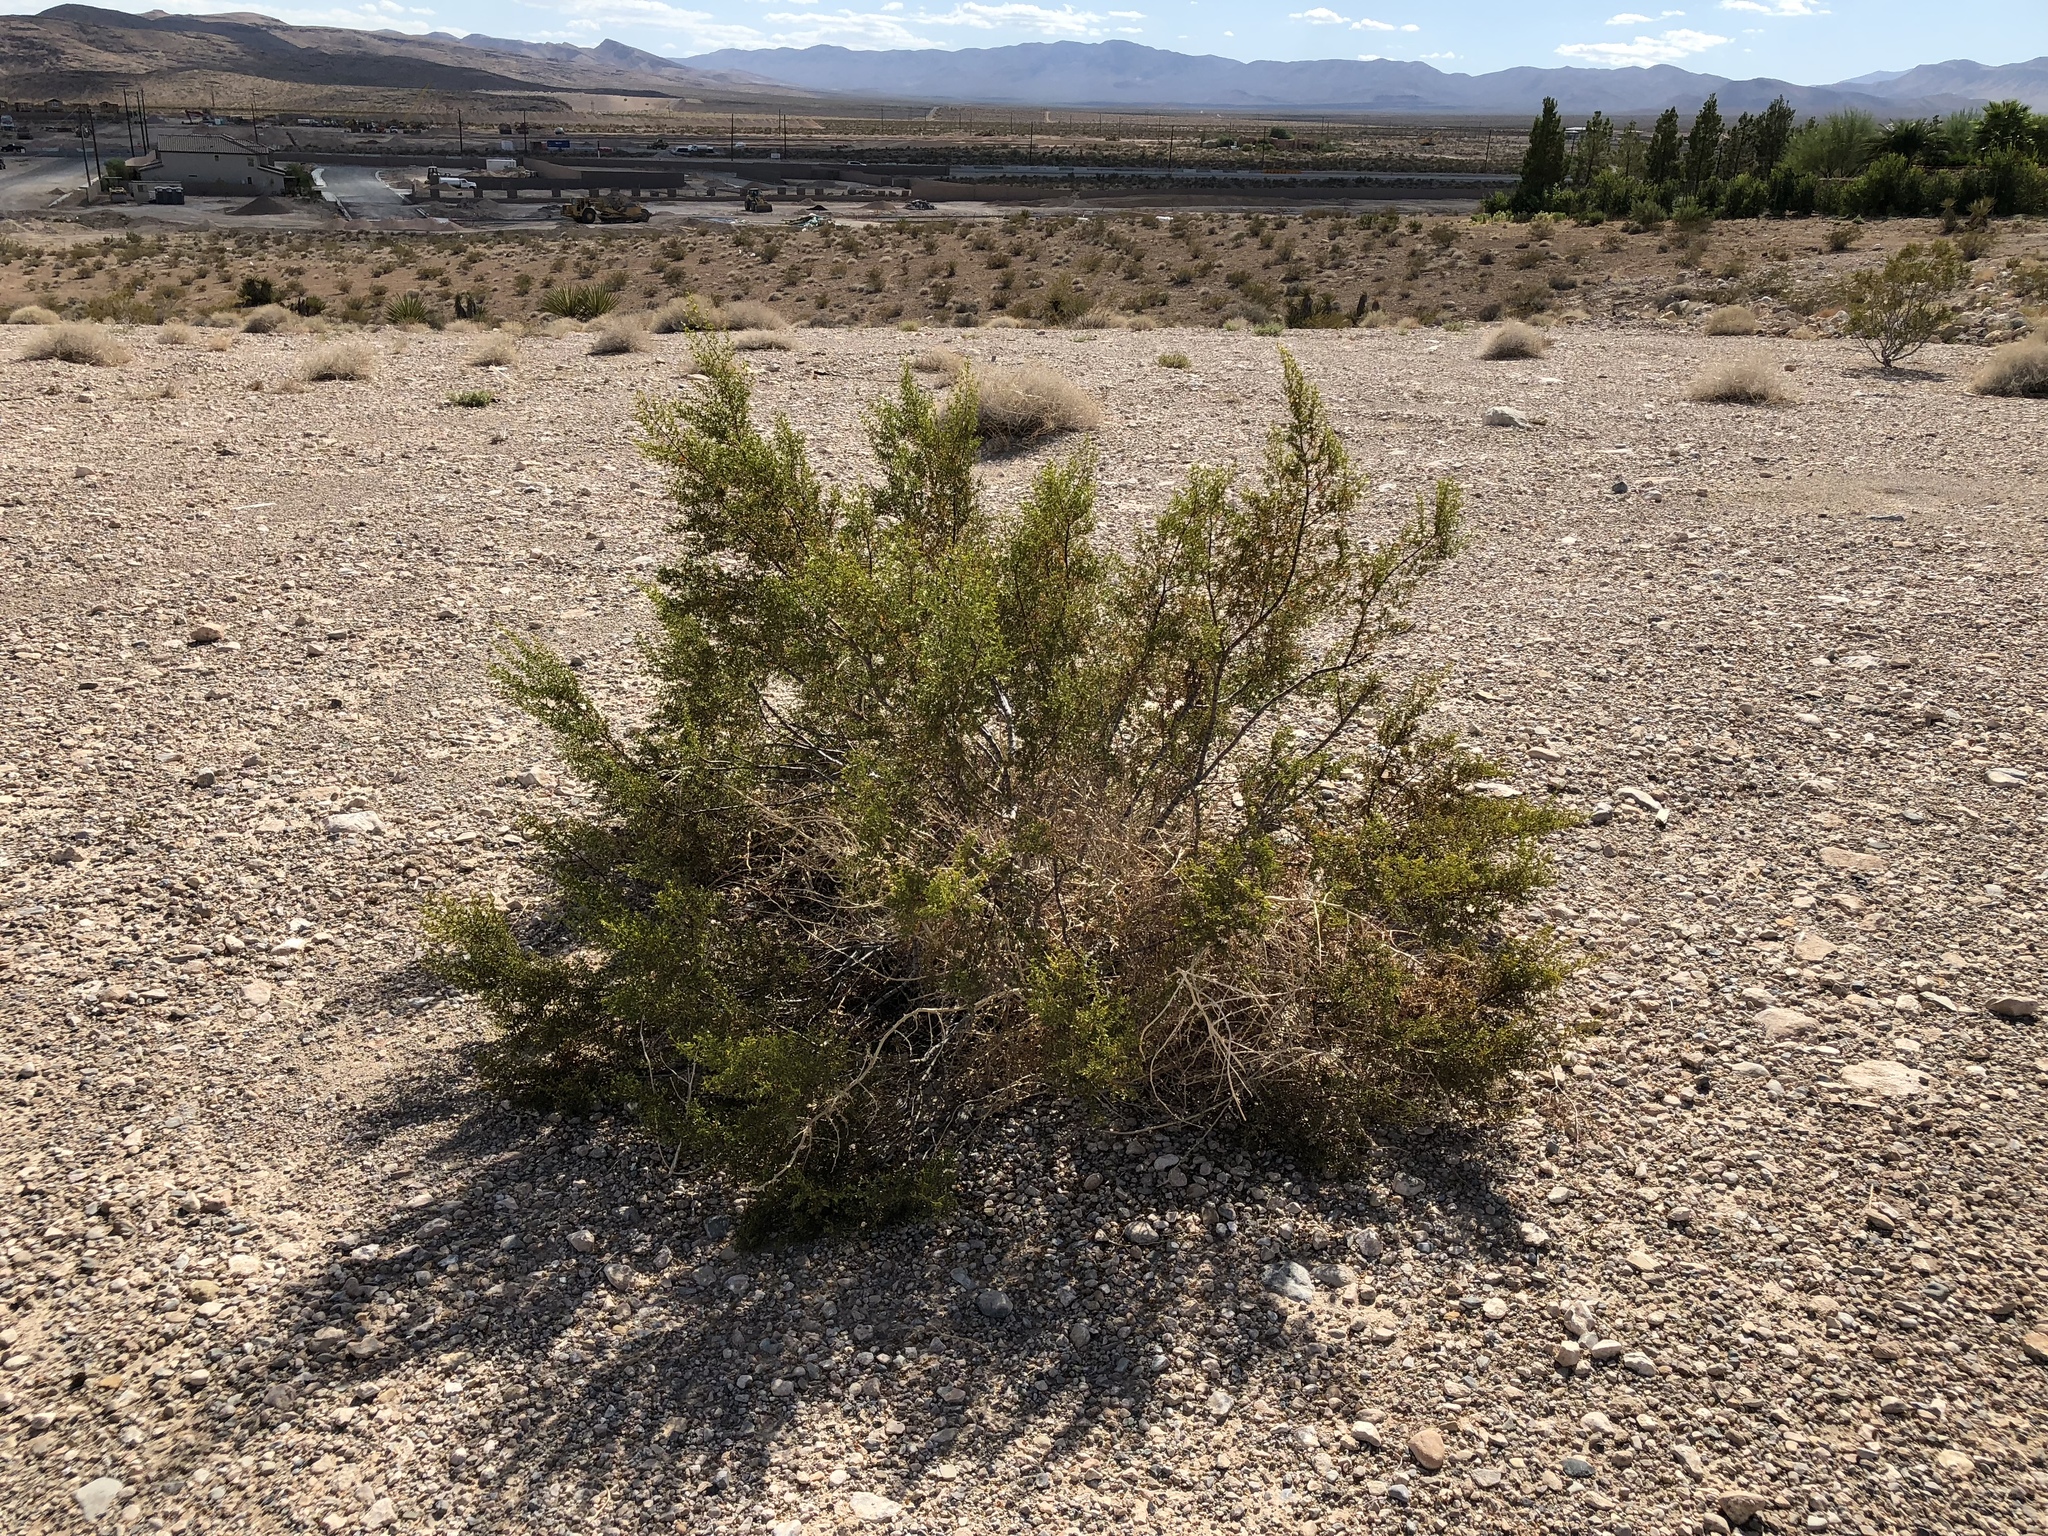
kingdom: Plantae
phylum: Tracheophyta
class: Magnoliopsida
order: Zygophyllales
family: Zygophyllaceae
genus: Larrea
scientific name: Larrea tridentata
